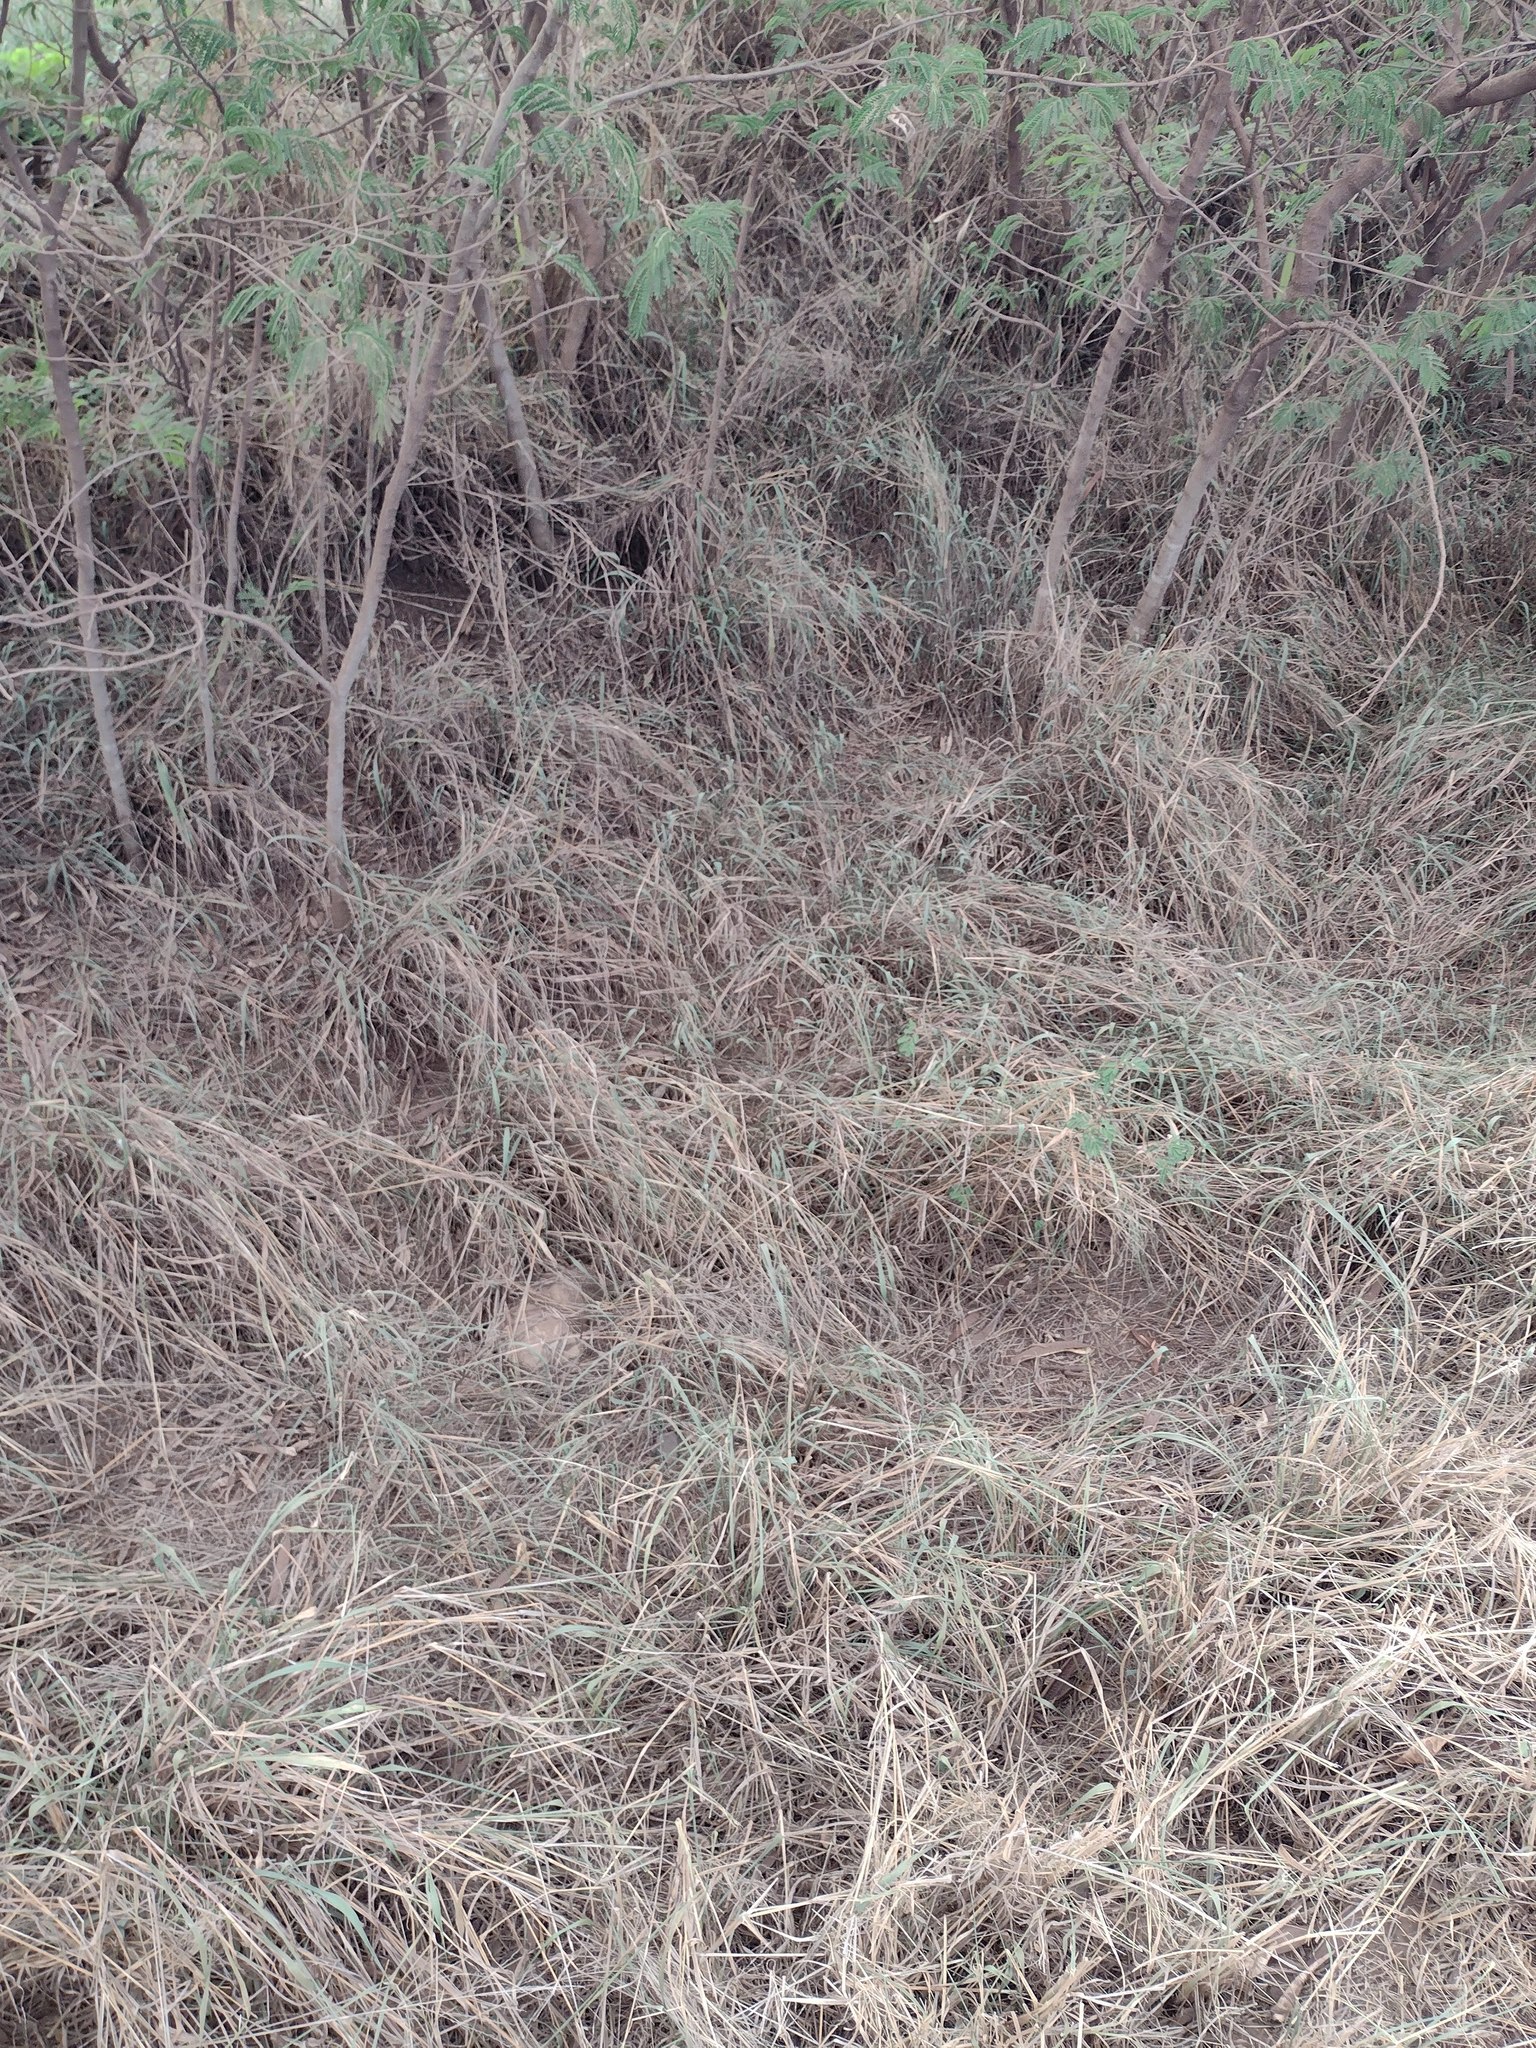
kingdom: Plantae
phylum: Tracheophyta
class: Liliopsida
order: Poales
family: Poaceae
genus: Megathyrsus
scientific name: Megathyrsus maximus
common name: Guineagrass
